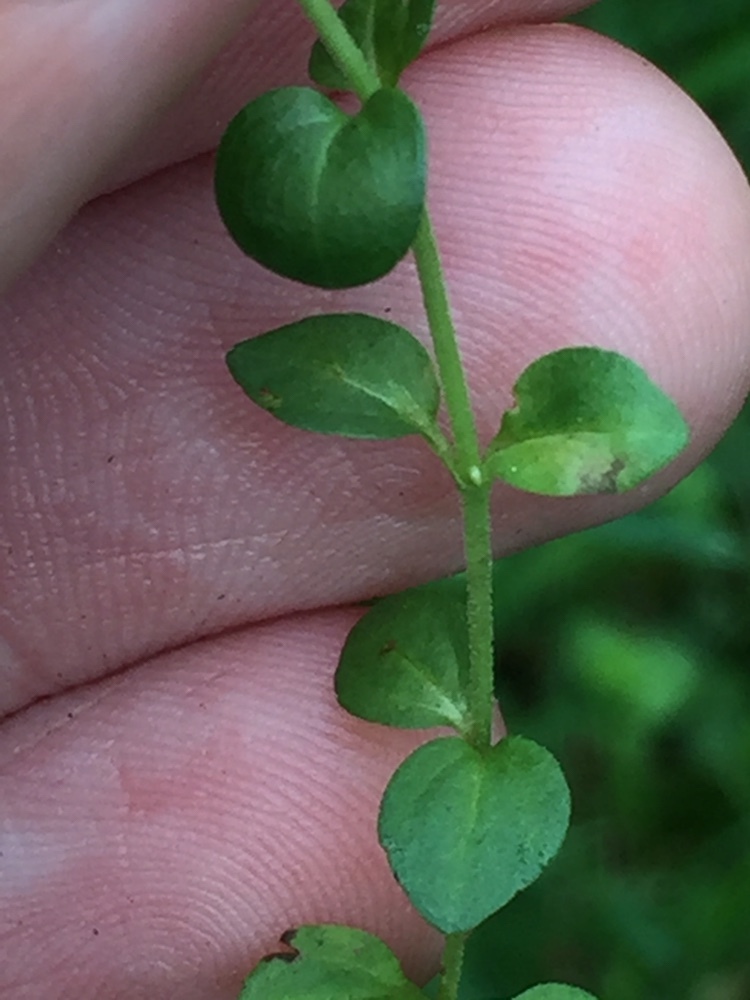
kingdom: Plantae
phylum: Tracheophyta
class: Magnoliopsida
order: Lamiales
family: Plantaginaceae
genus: Veronica
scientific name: Veronica serpyllifolia
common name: Thyme-leaved speedwell
